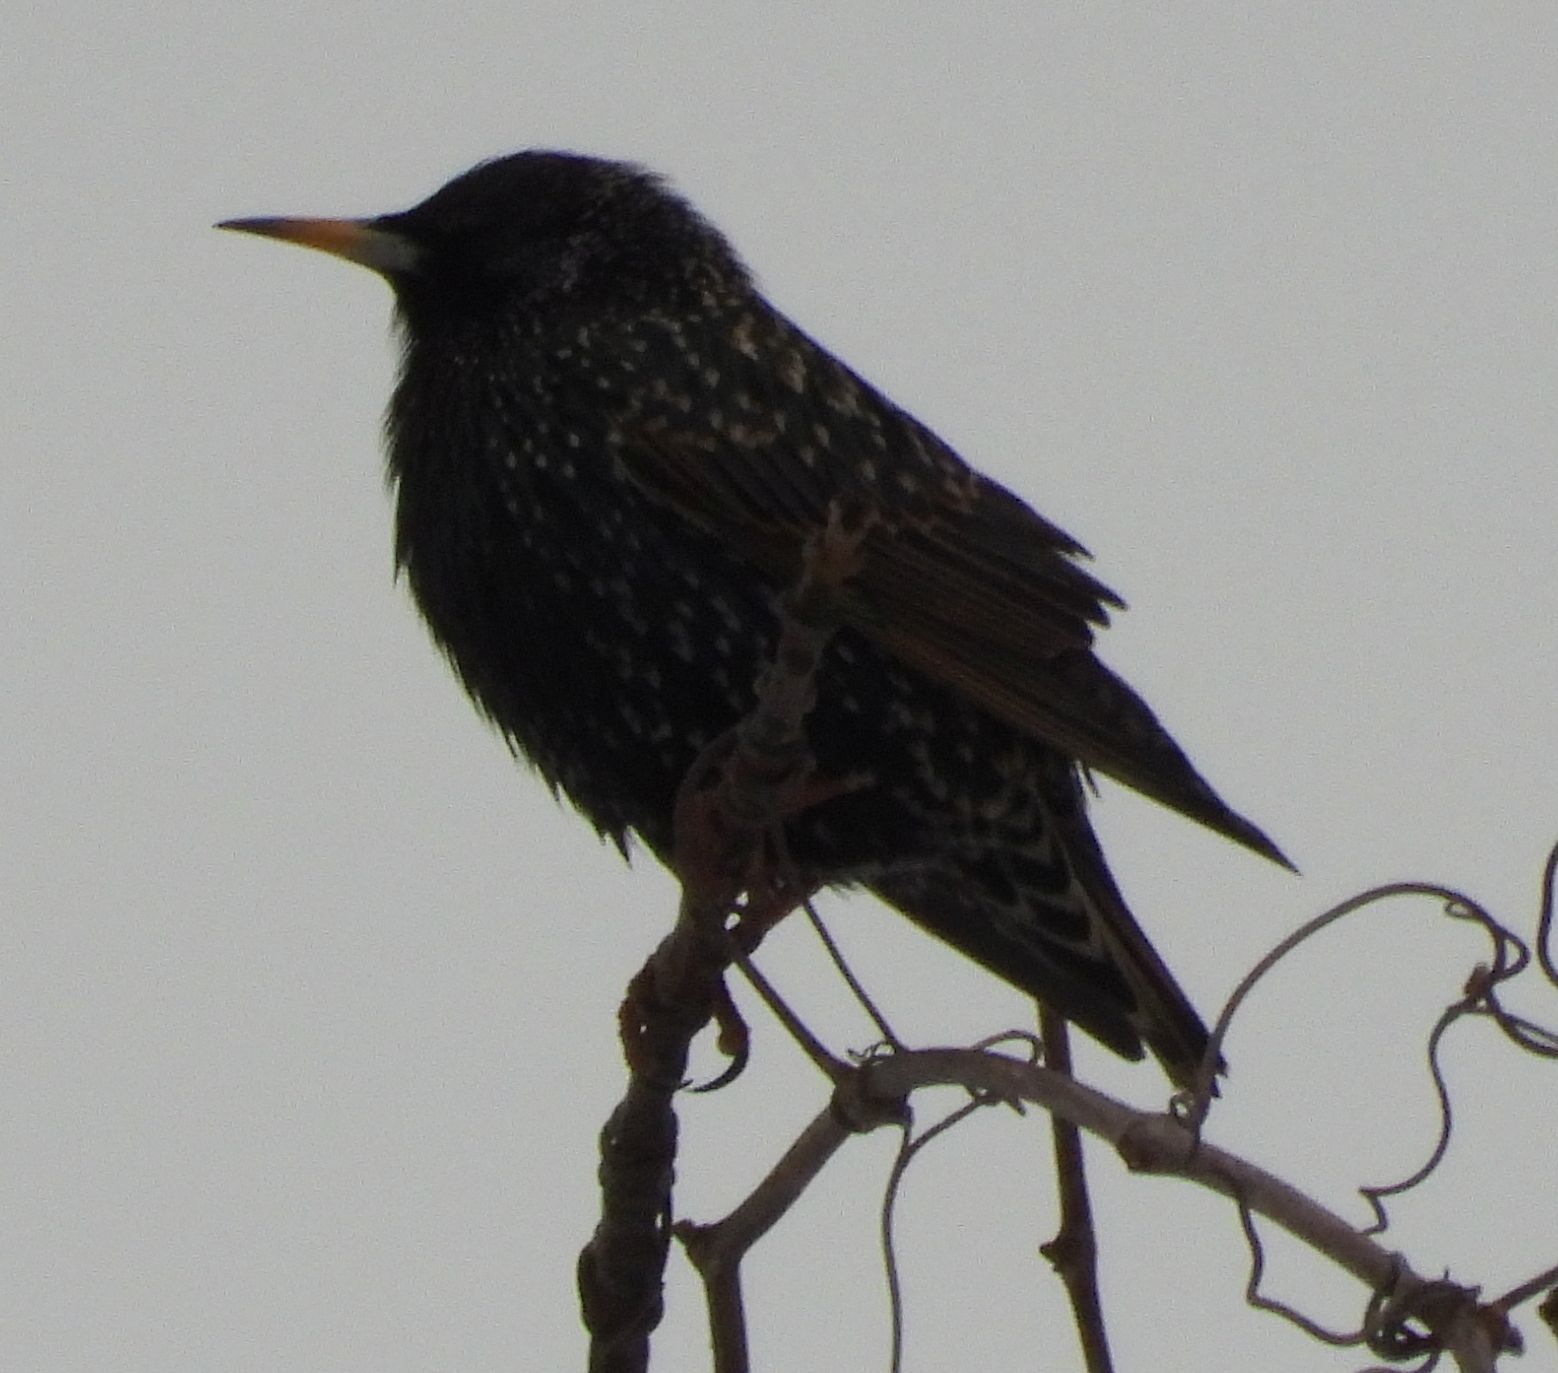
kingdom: Animalia
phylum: Chordata
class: Aves
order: Passeriformes
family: Sturnidae
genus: Sturnus
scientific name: Sturnus vulgaris
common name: Common starling
